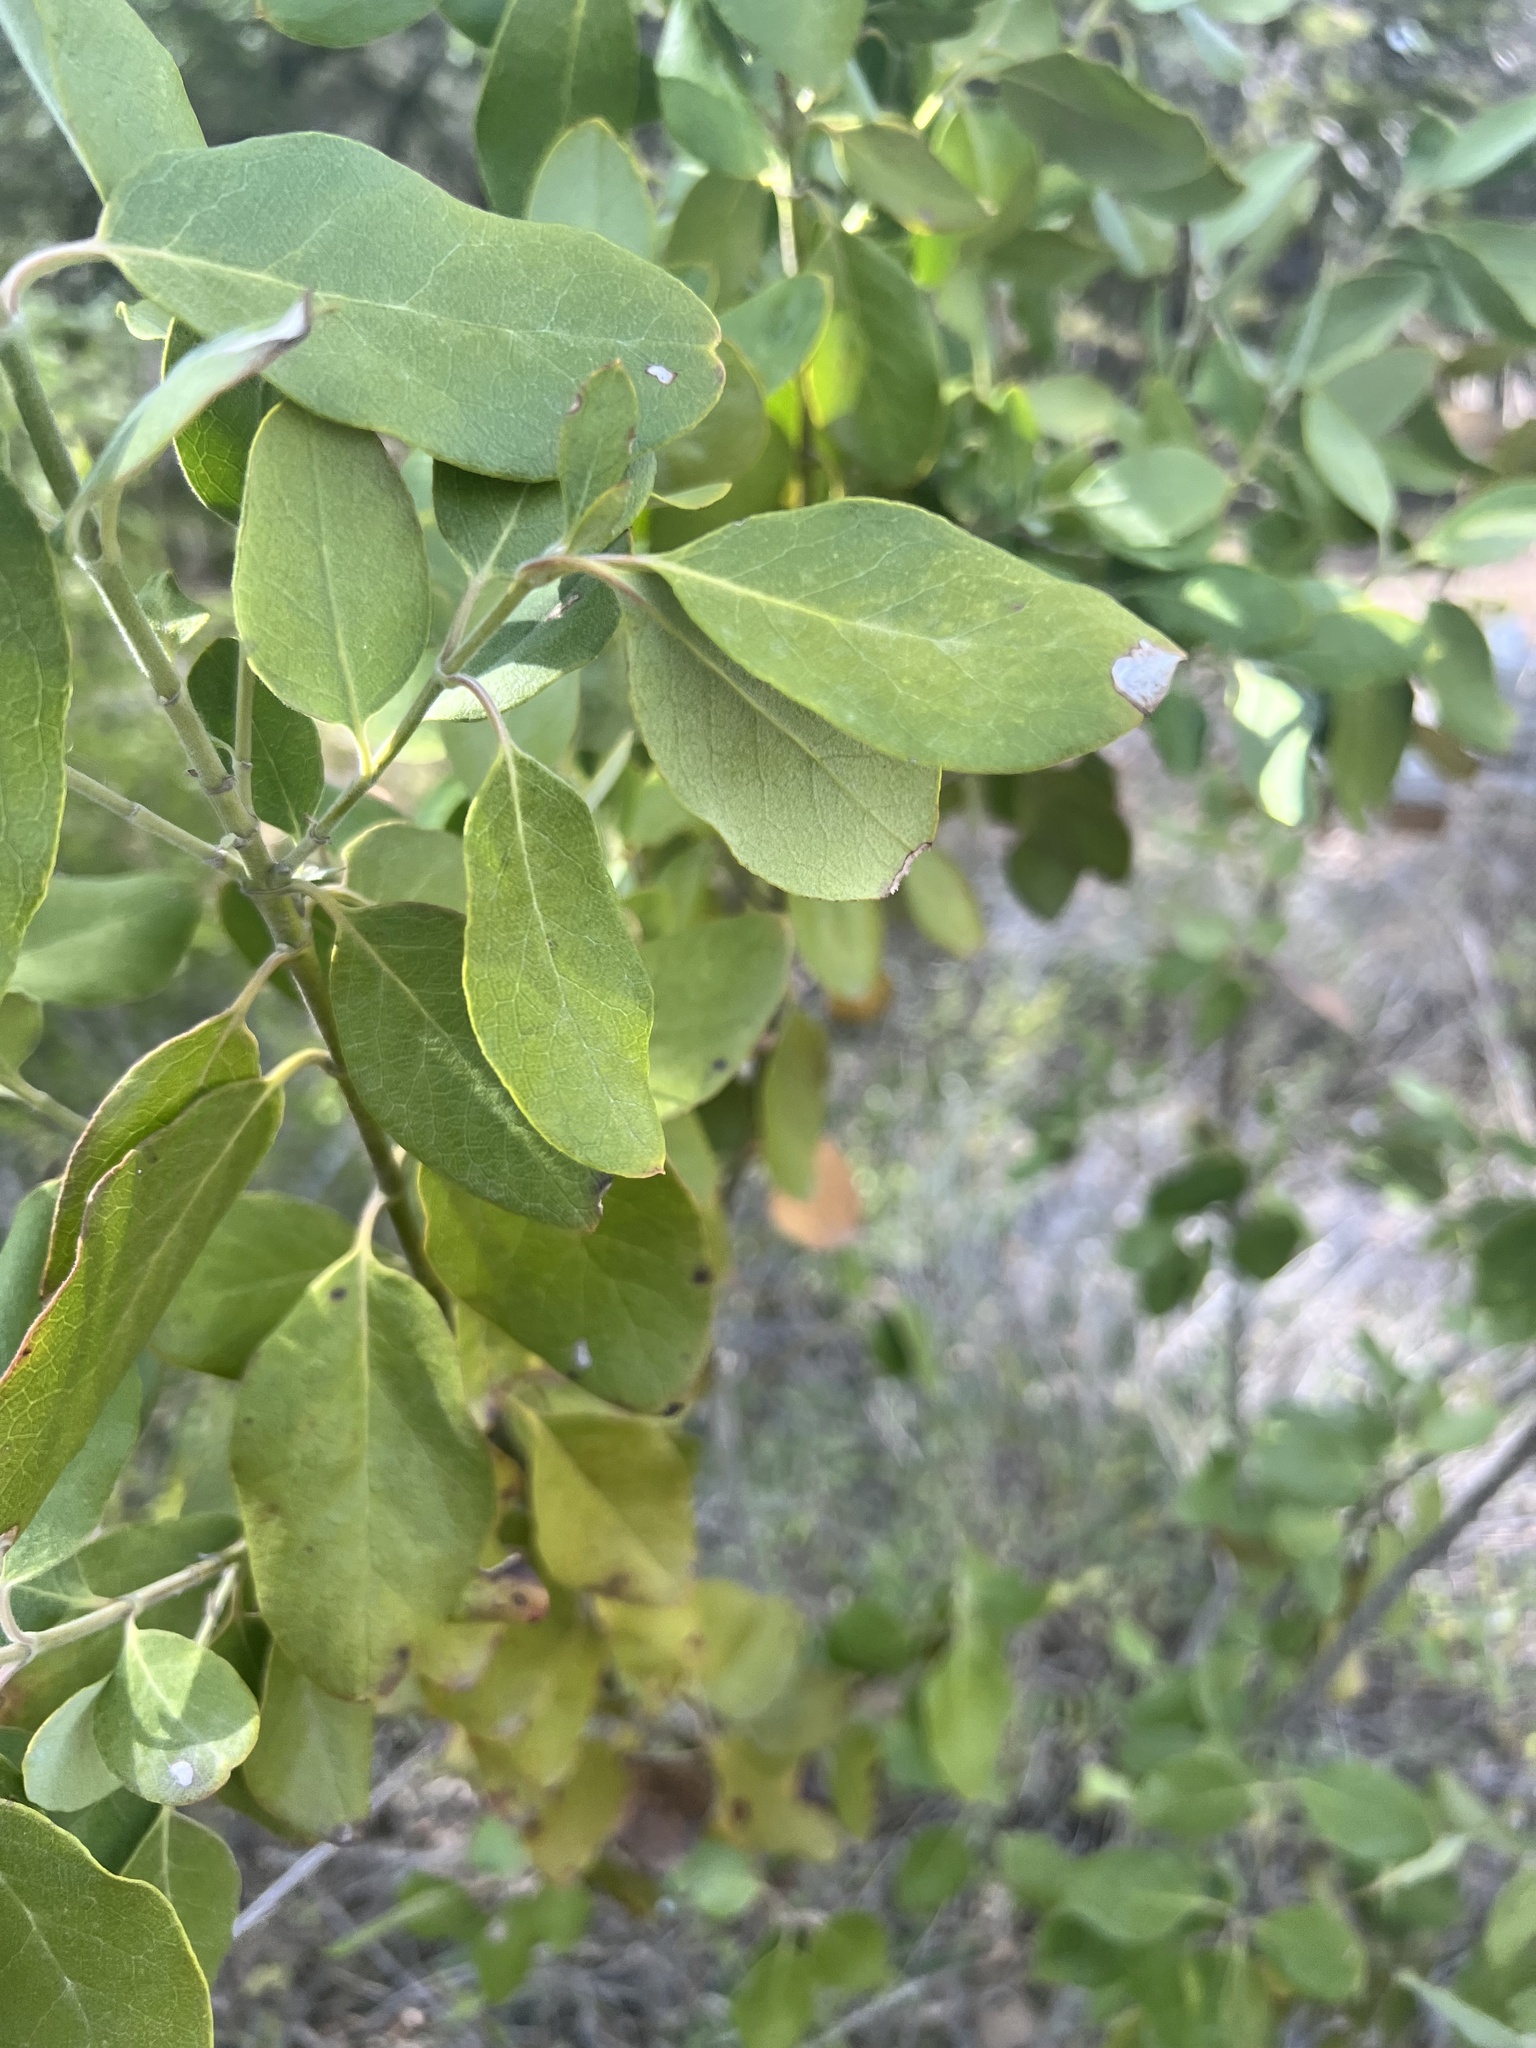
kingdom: Plantae
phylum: Tracheophyta
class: Magnoliopsida
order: Garryales
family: Garryaceae
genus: Garrya
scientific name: Garrya lindheimeri
